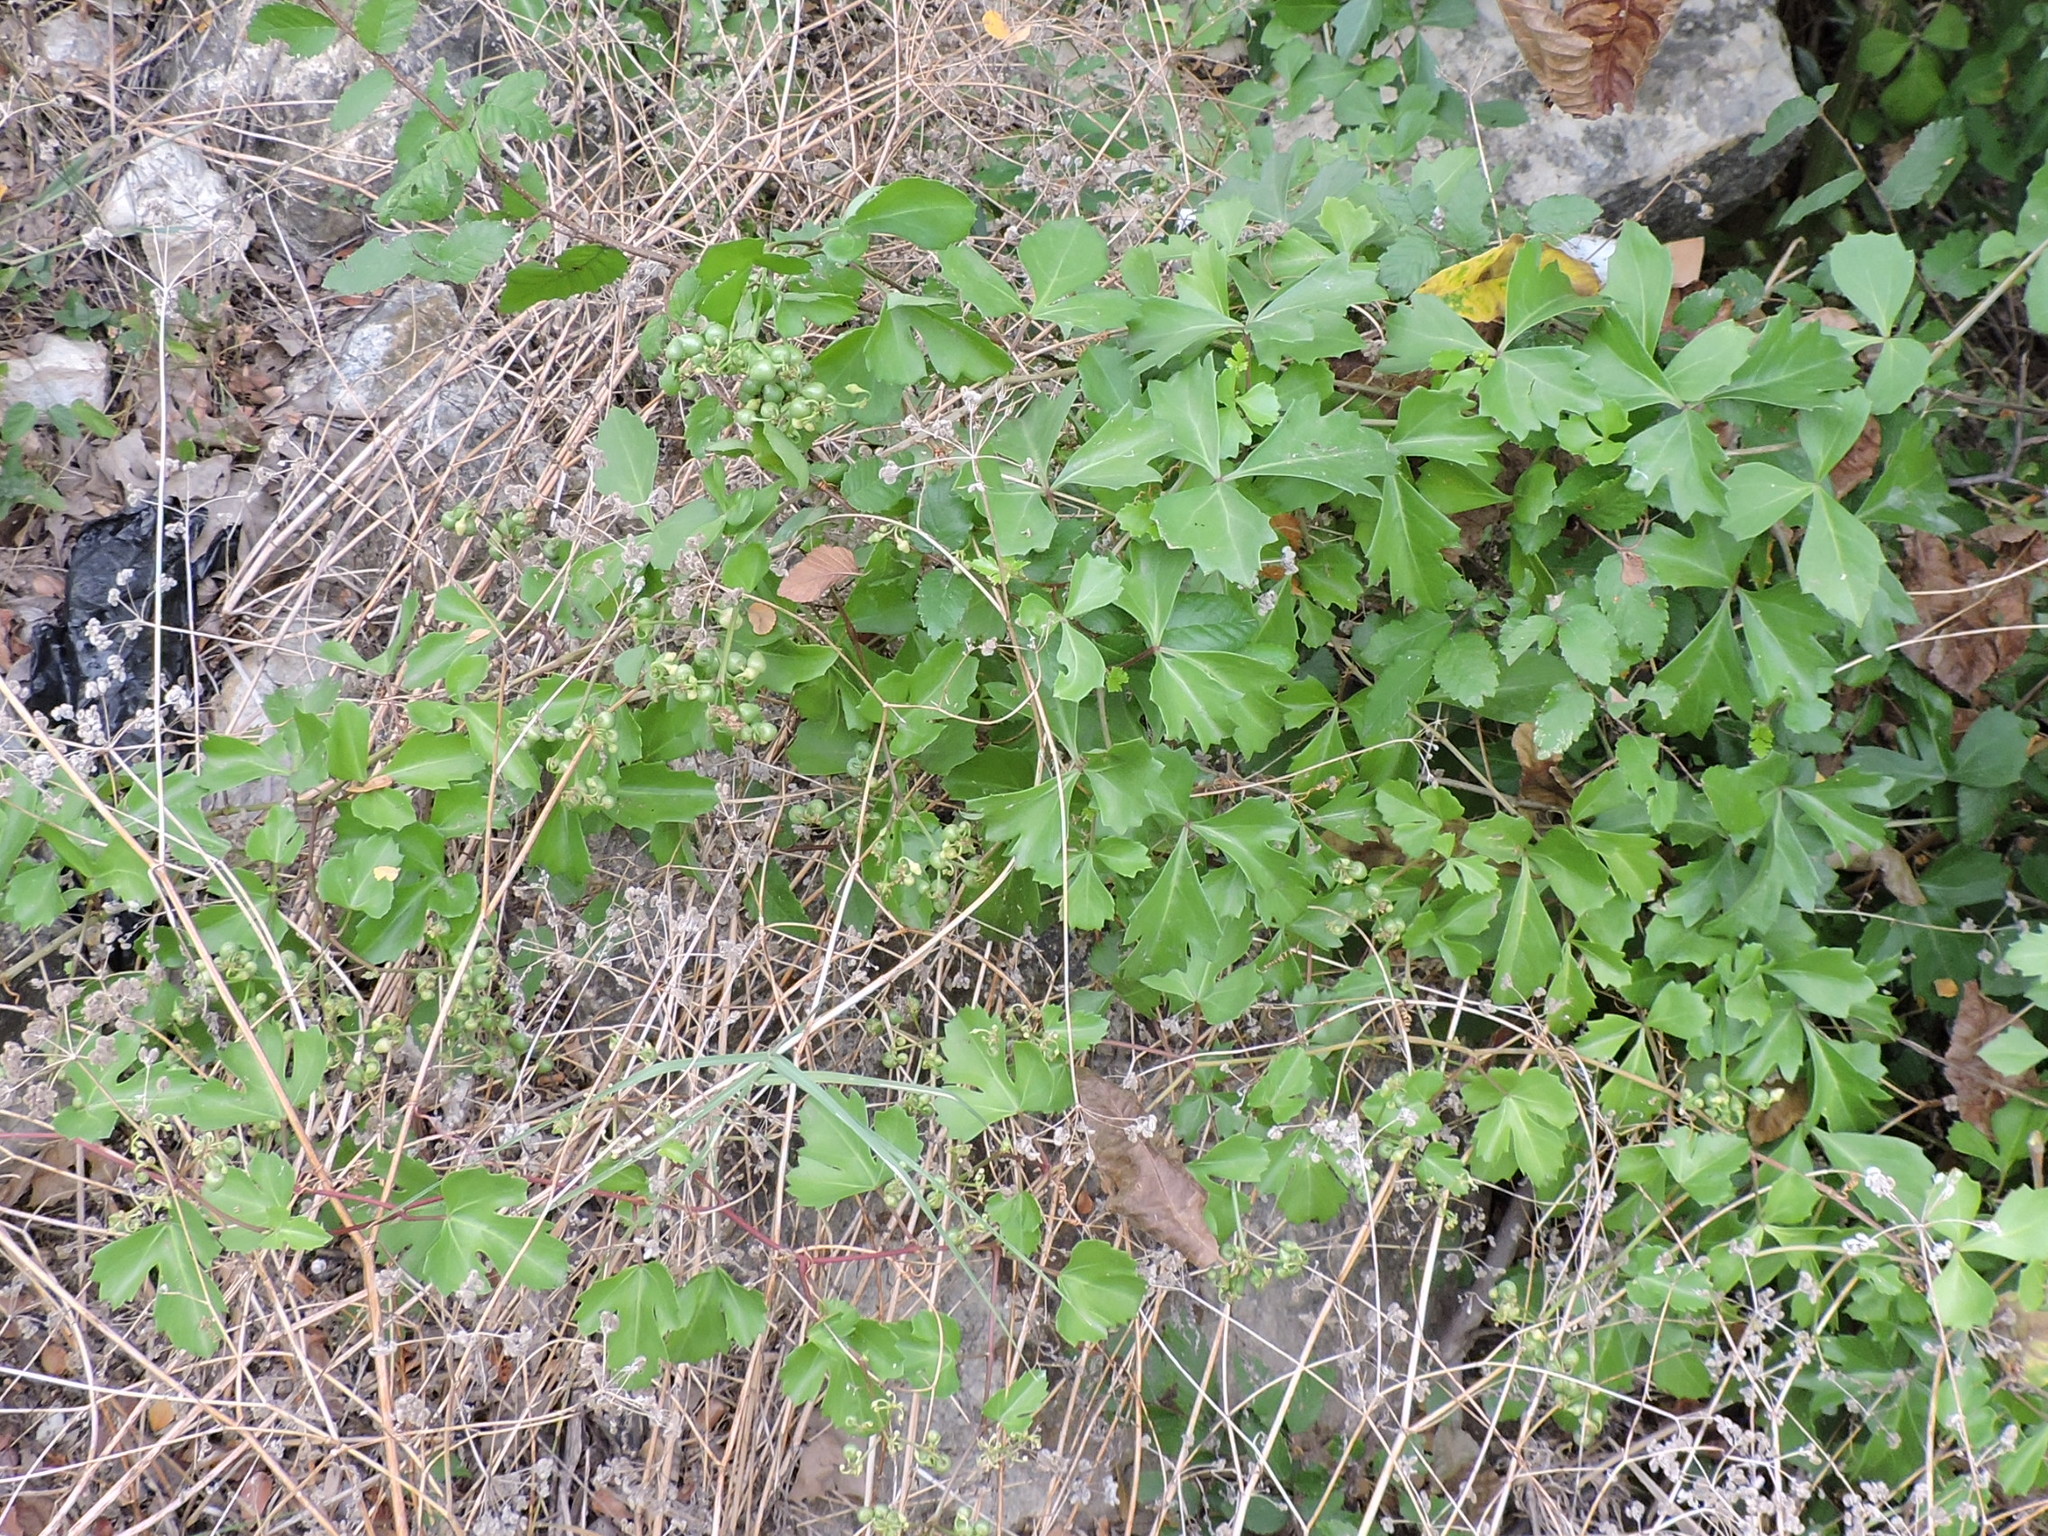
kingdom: Plantae
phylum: Tracheophyta
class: Magnoliopsida
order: Vitales
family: Vitaceae
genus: Cissus
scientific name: Cissus trifoliata
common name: Vine-sorrel
